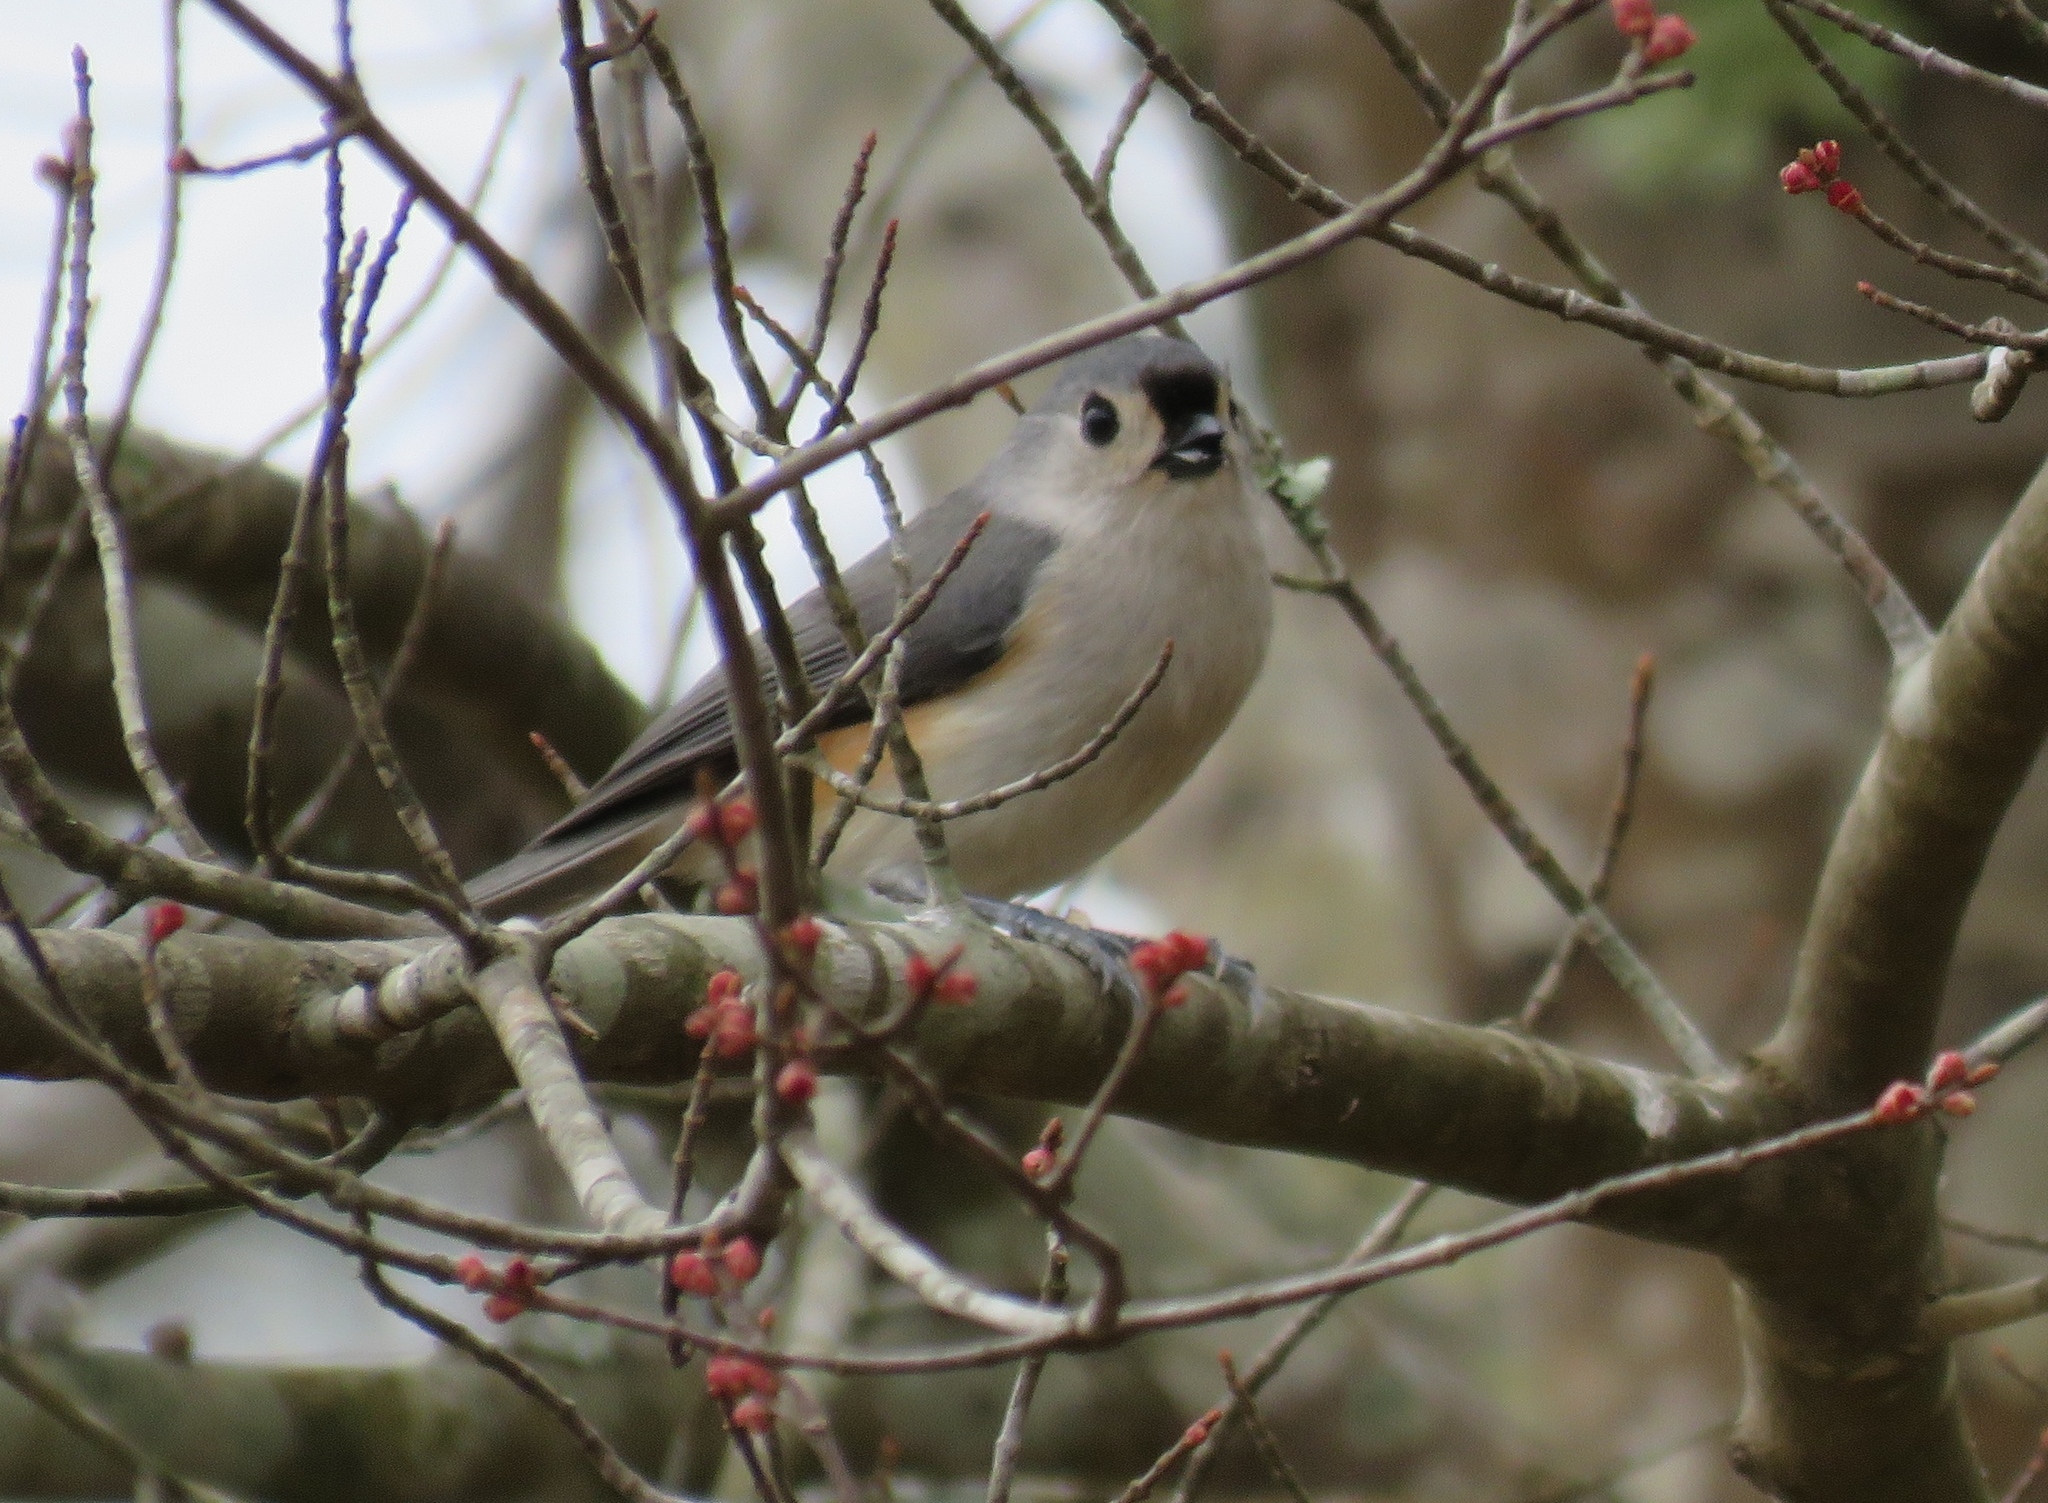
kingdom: Animalia
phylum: Chordata
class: Aves
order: Passeriformes
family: Paridae
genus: Baeolophus
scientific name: Baeolophus bicolor
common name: Tufted titmouse
